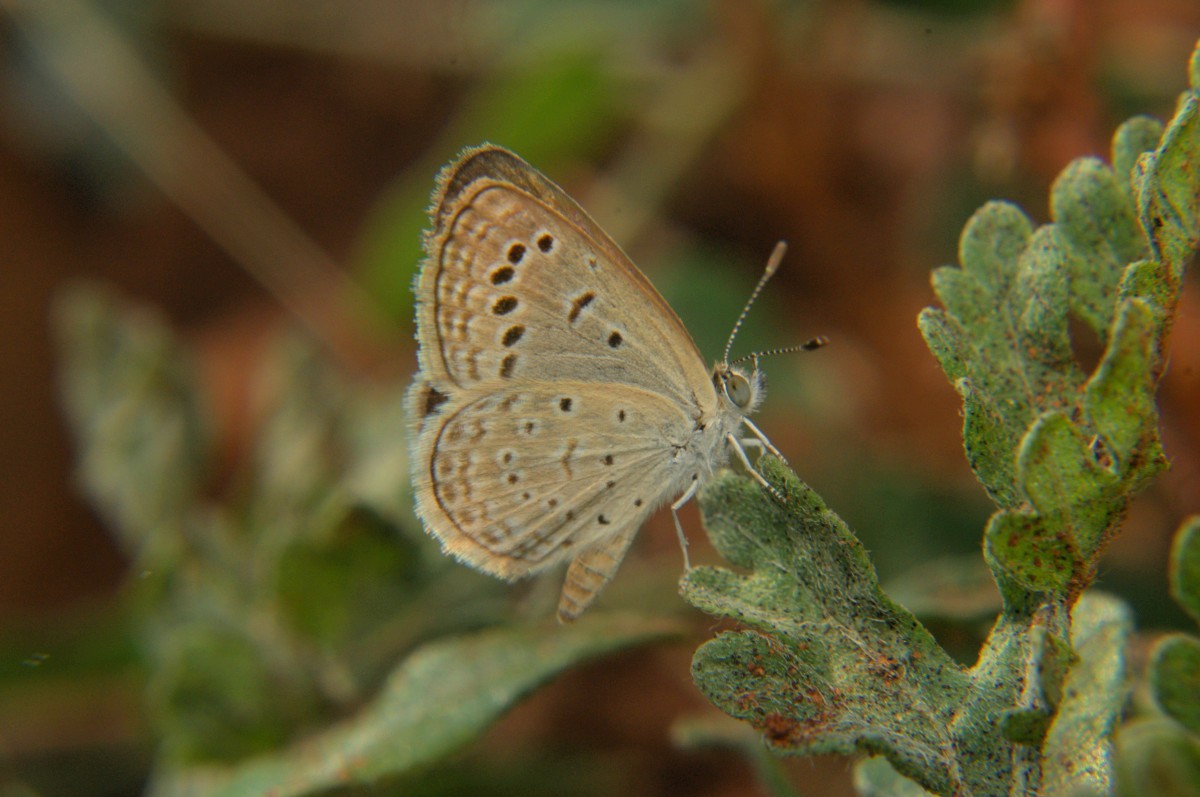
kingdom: Animalia
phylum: Arthropoda
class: Insecta
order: Lepidoptera
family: Lycaenidae
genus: Zizeeria
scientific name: Zizeeria karsandra
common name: Dark grass blue
